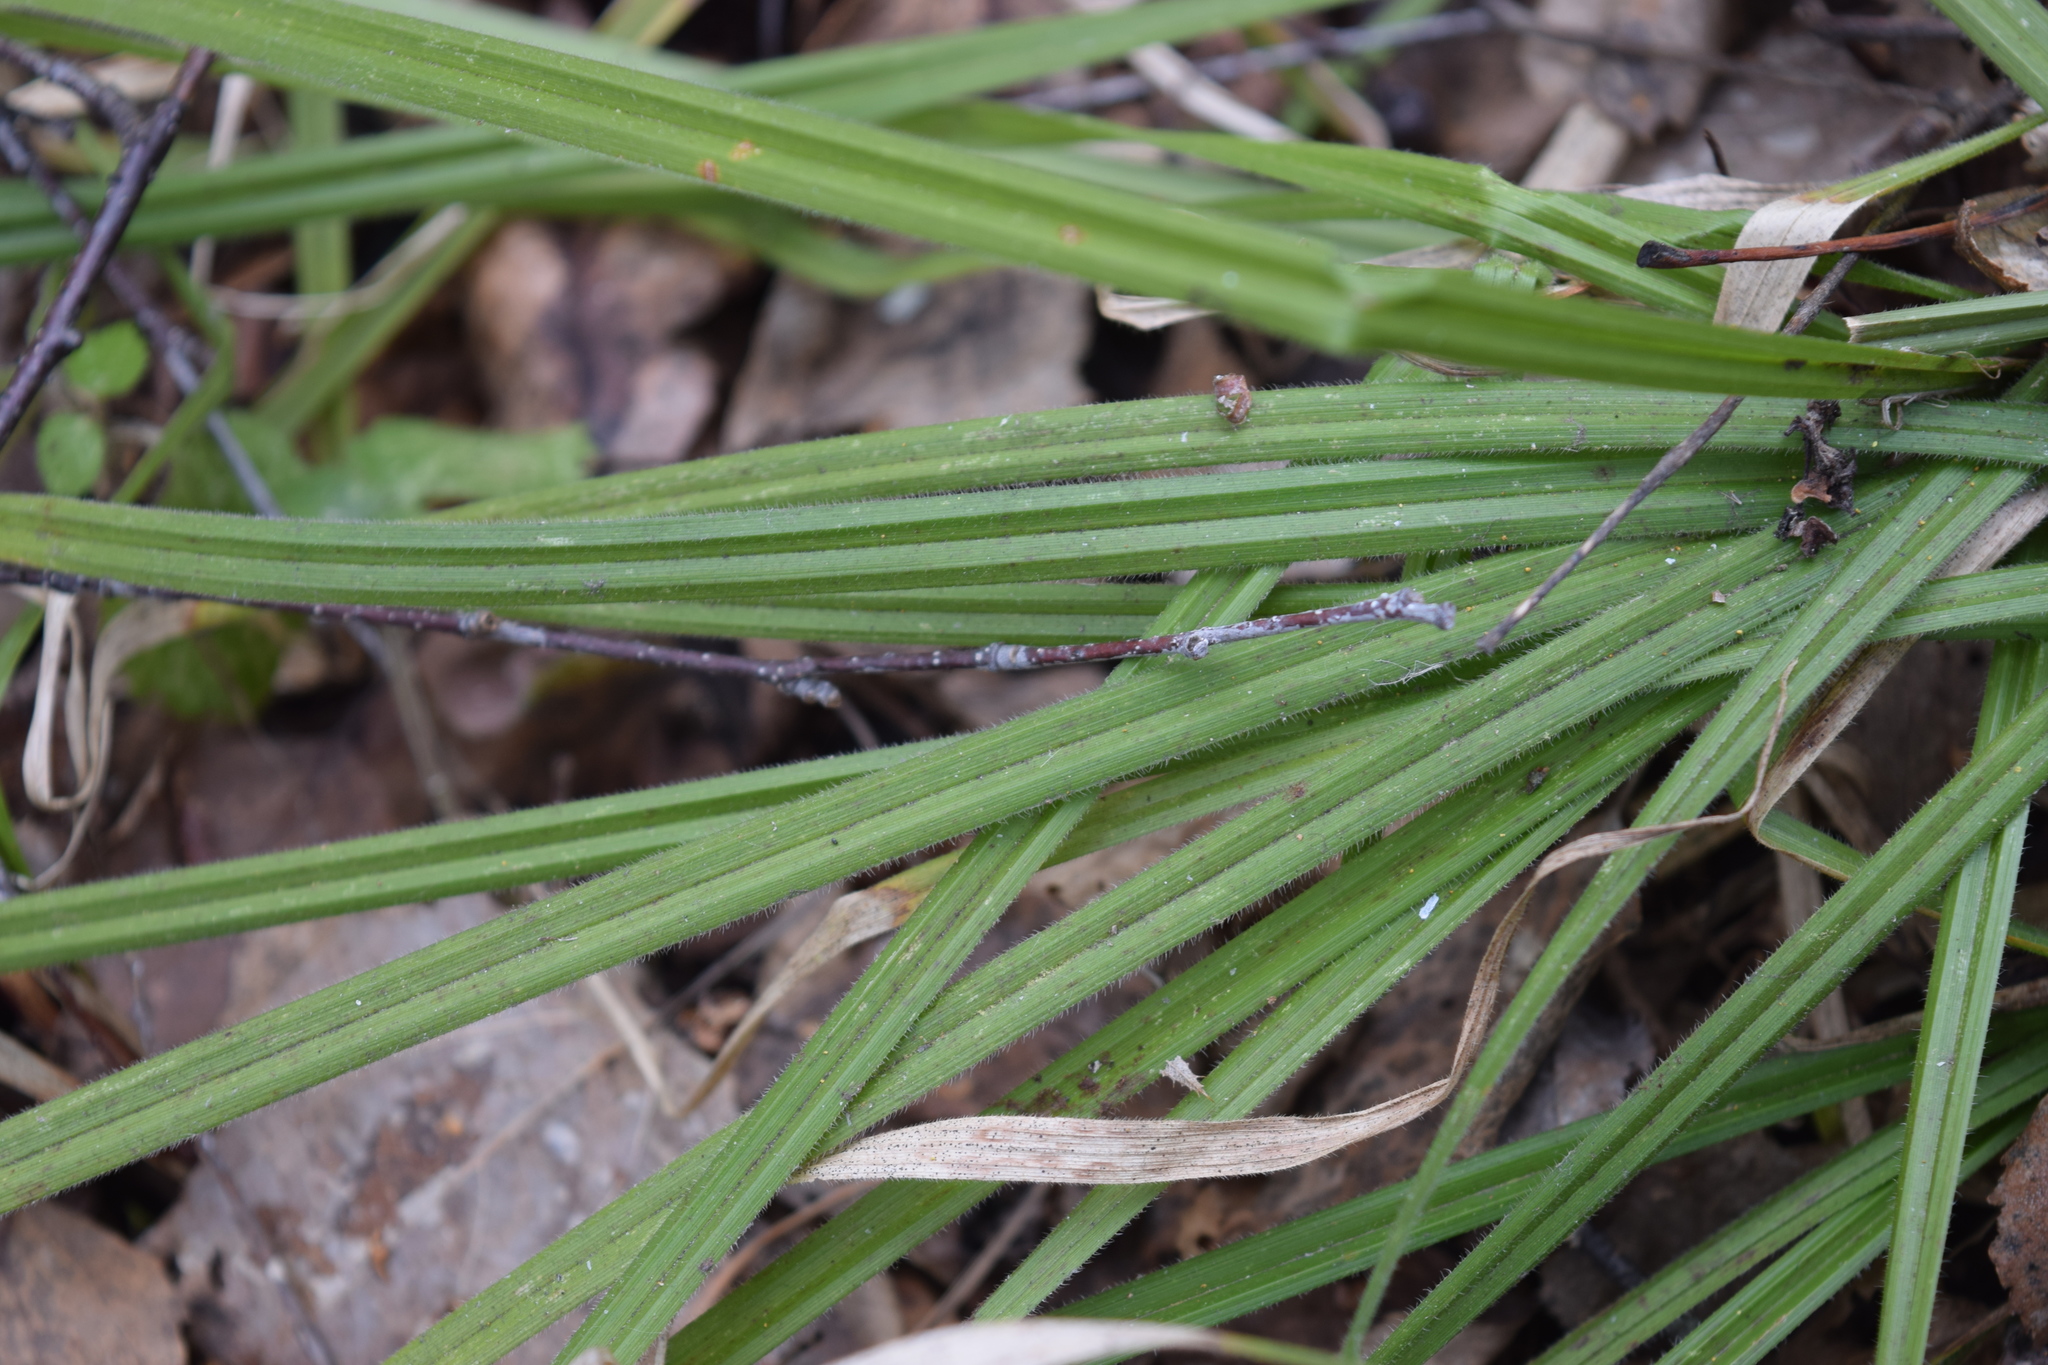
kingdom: Plantae
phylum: Tracheophyta
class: Liliopsida
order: Poales
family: Cyperaceae
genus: Carex
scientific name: Carex pilosa
